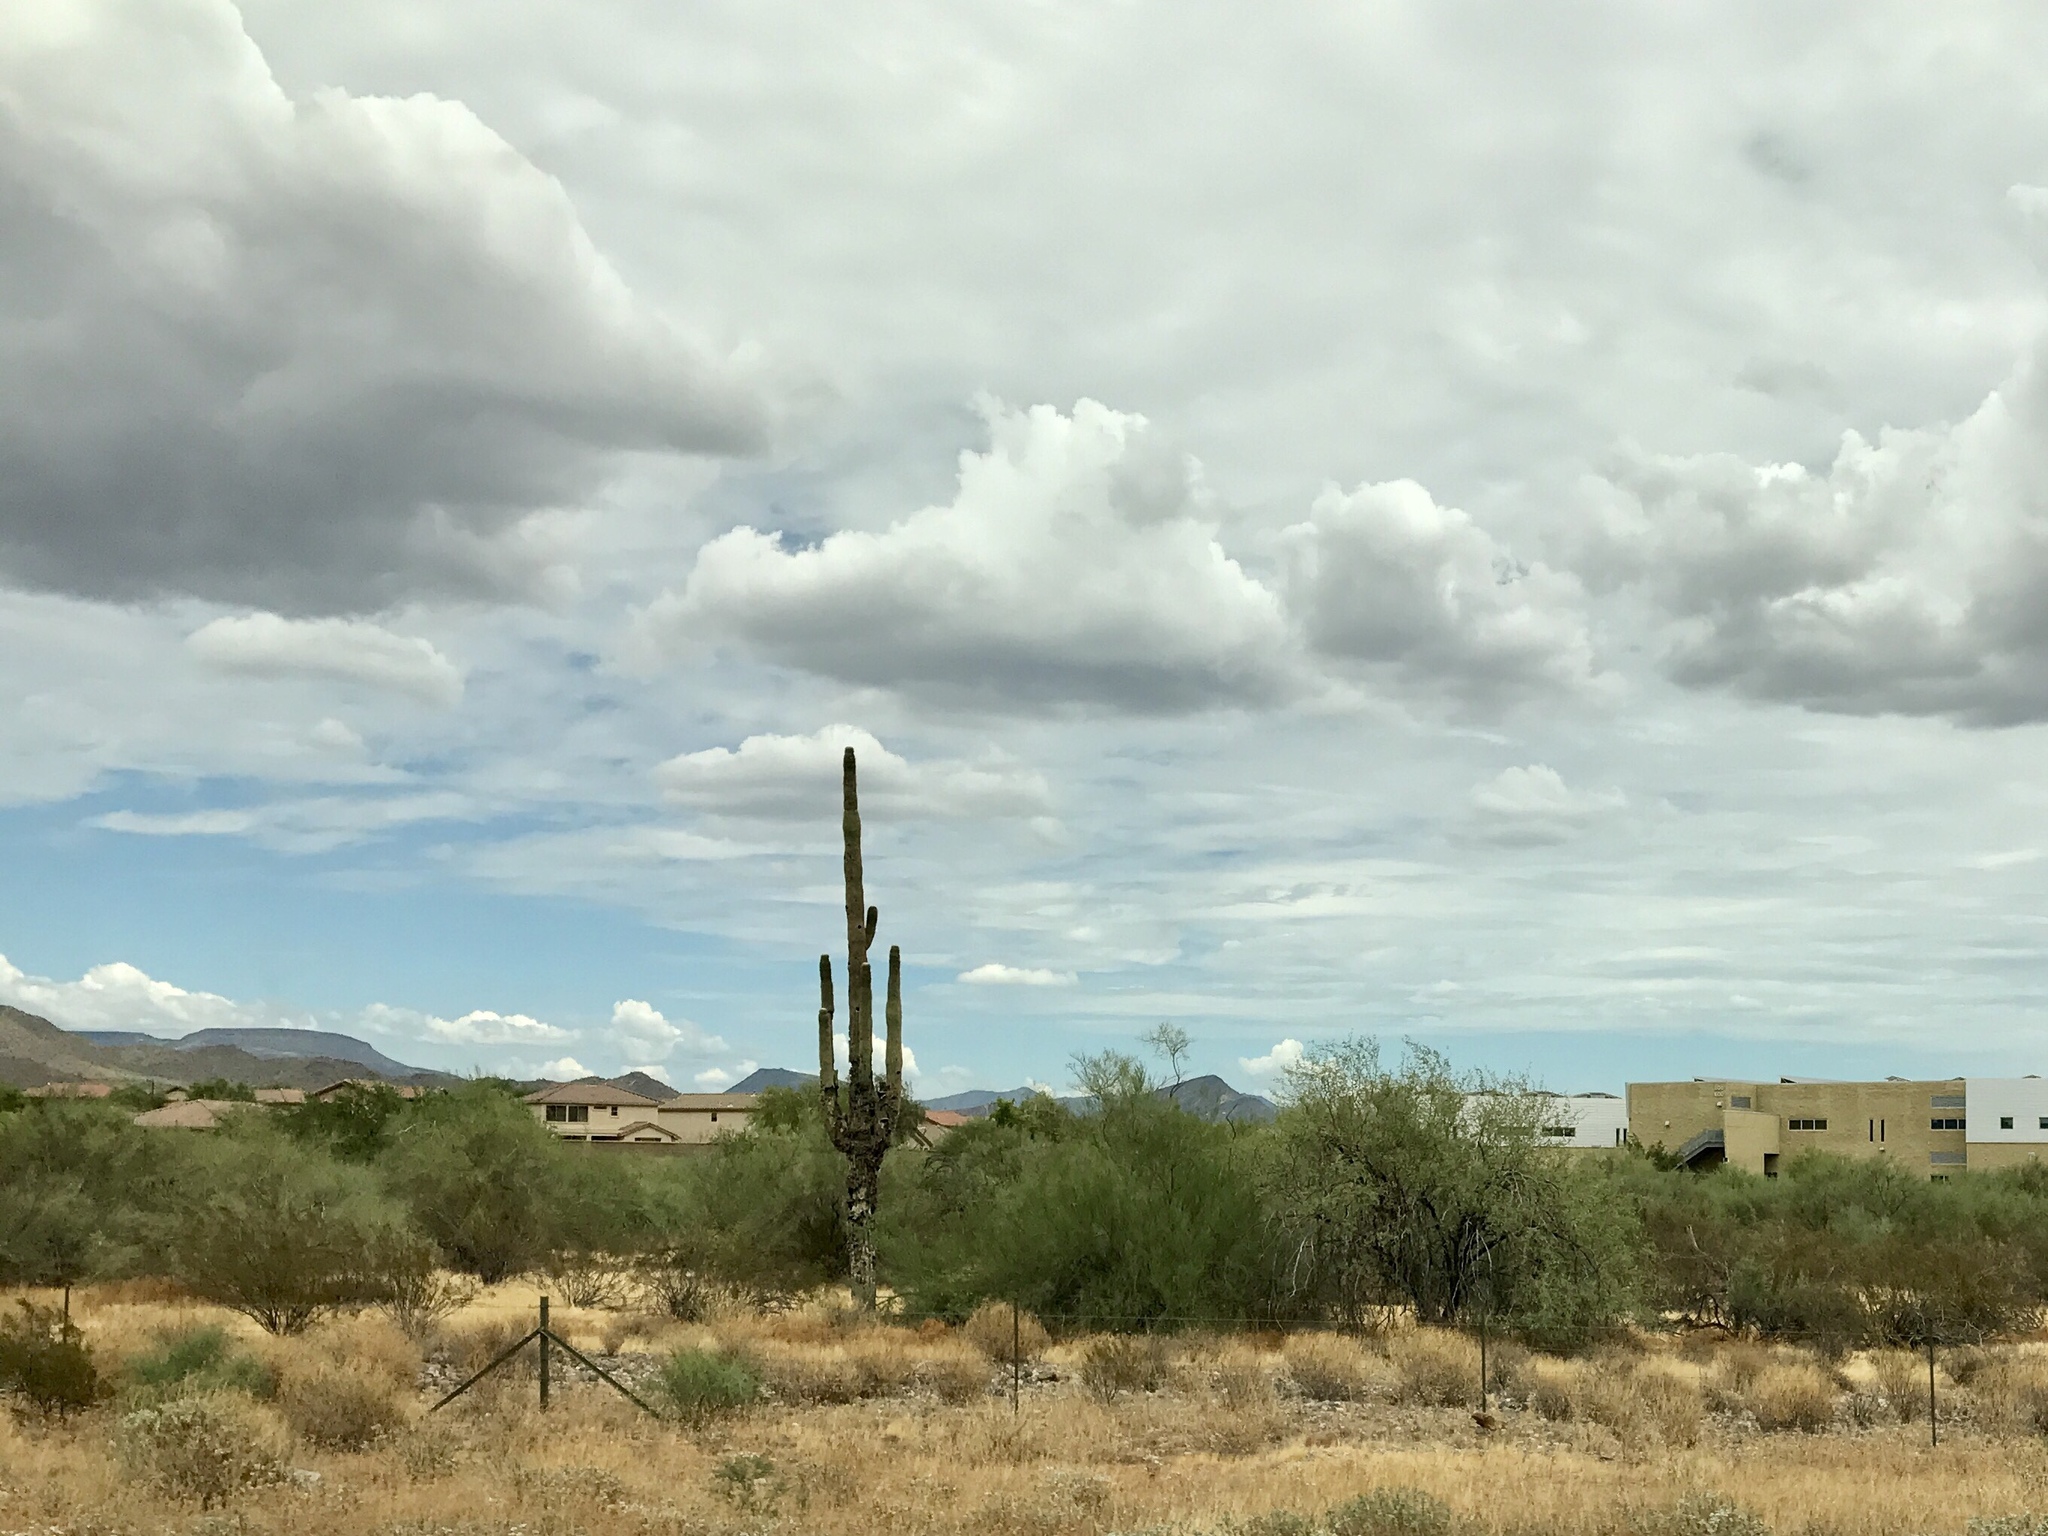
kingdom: Plantae
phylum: Tracheophyta
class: Magnoliopsida
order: Caryophyllales
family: Cactaceae
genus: Carnegiea
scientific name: Carnegiea gigantea
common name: Saguaro
